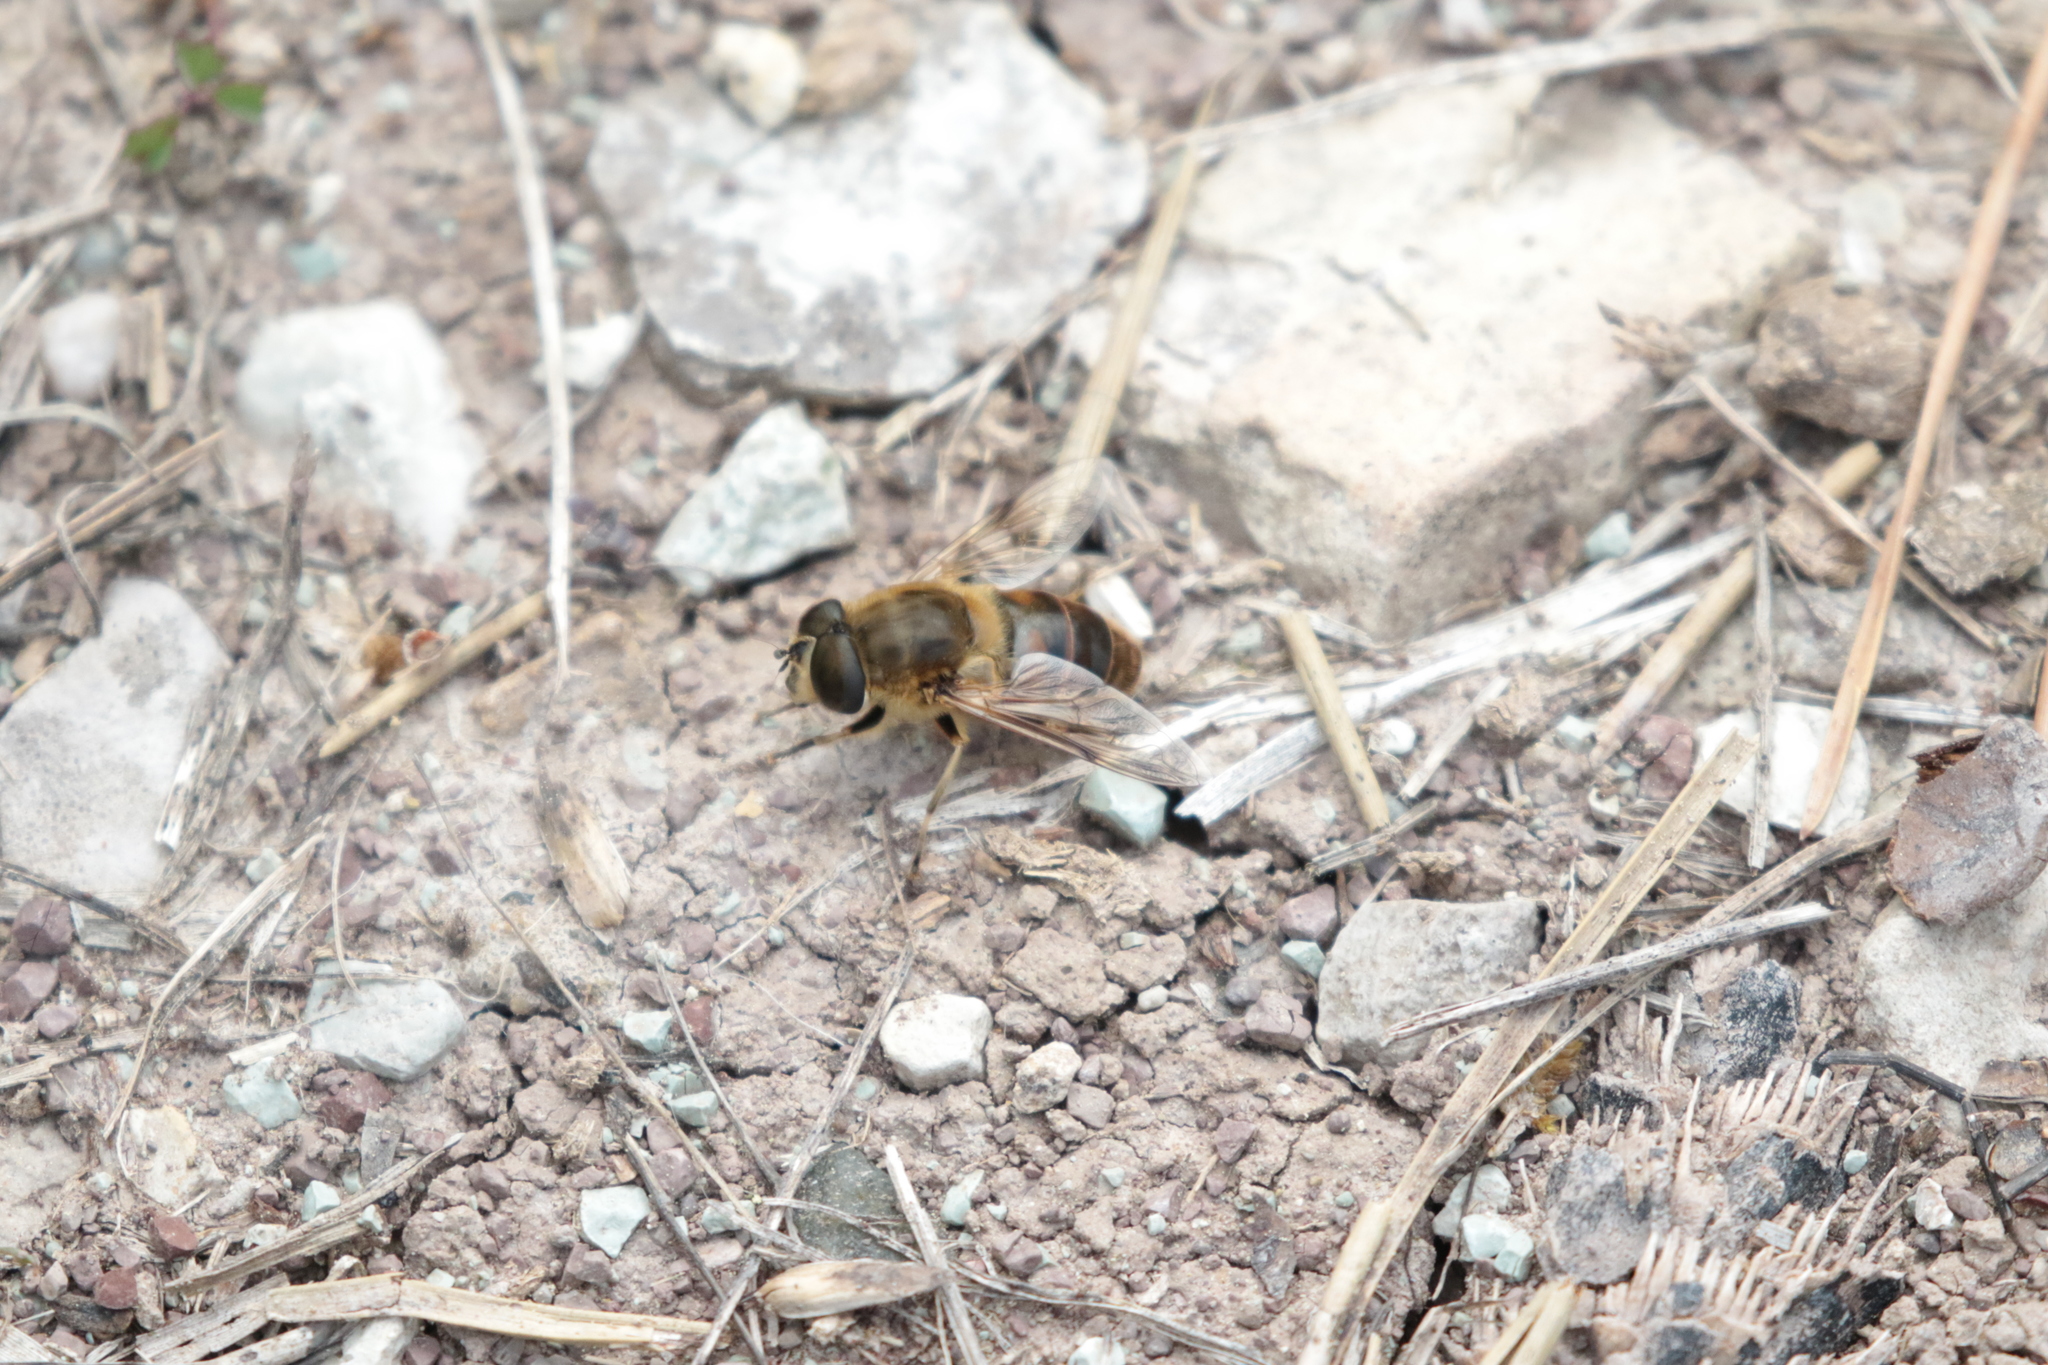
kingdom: Animalia
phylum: Arthropoda
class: Insecta
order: Diptera
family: Syrphidae
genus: Eristalis
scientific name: Eristalis tenax
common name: Drone fly
